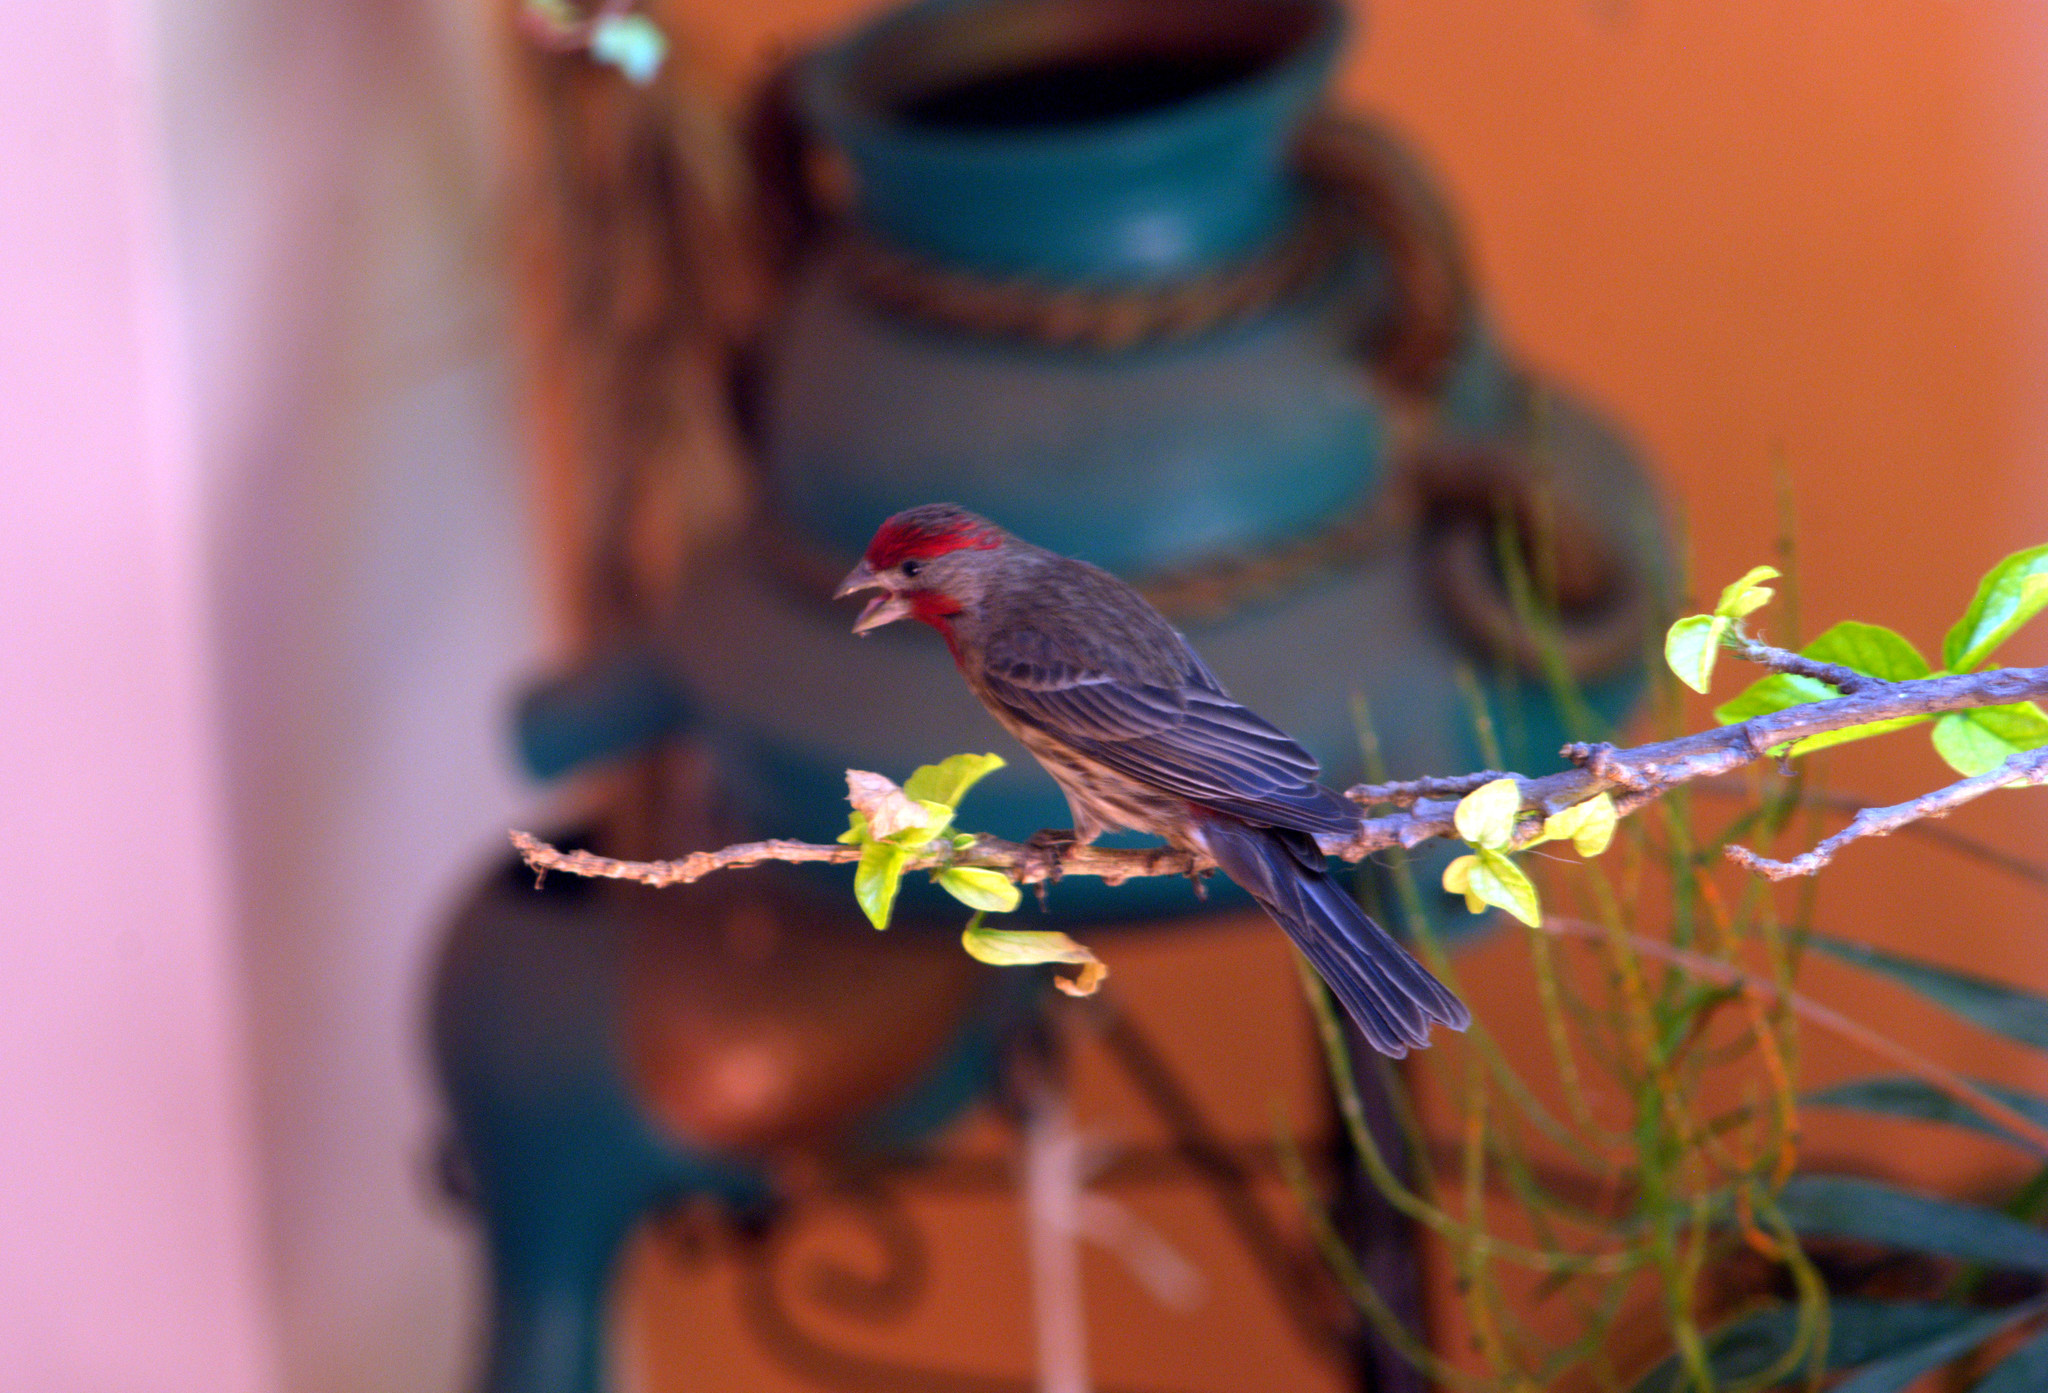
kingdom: Animalia
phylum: Chordata
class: Aves
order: Passeriformes
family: Fringillidae
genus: Haemorhous
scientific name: Haemorhous mexicanus
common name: House finch
